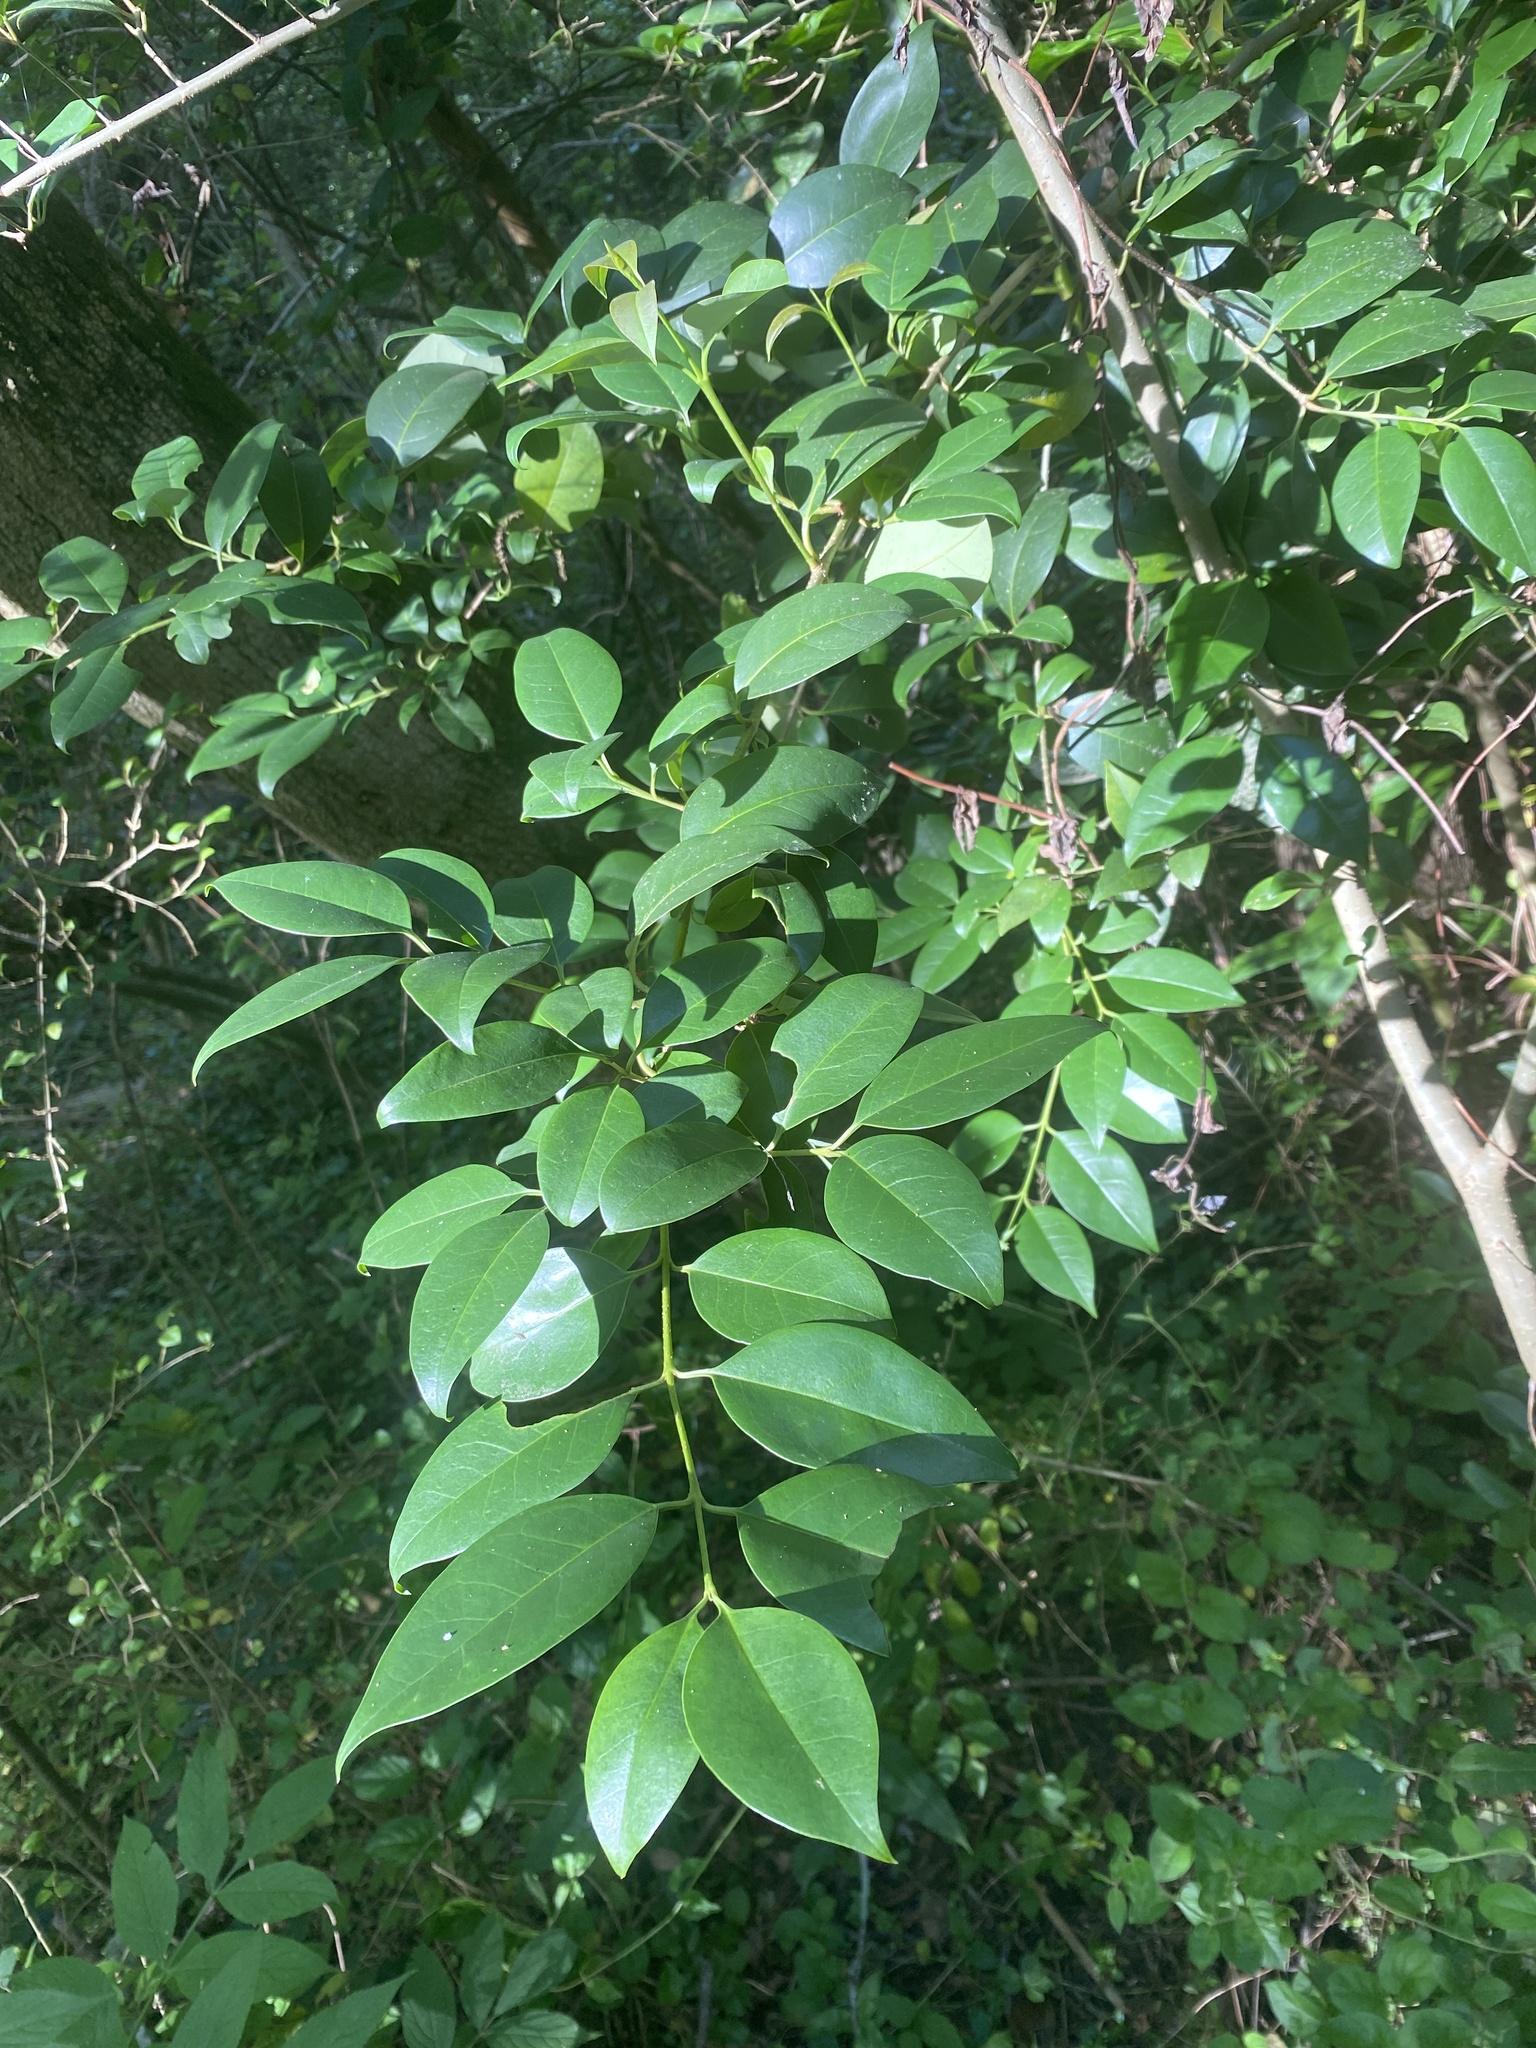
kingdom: Plantae
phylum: Tracheophyta
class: Magnoliopsida
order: Lamiales
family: Oleaceae
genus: Ligustrum
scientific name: Ligustrum lucidum
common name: Glossy privet
